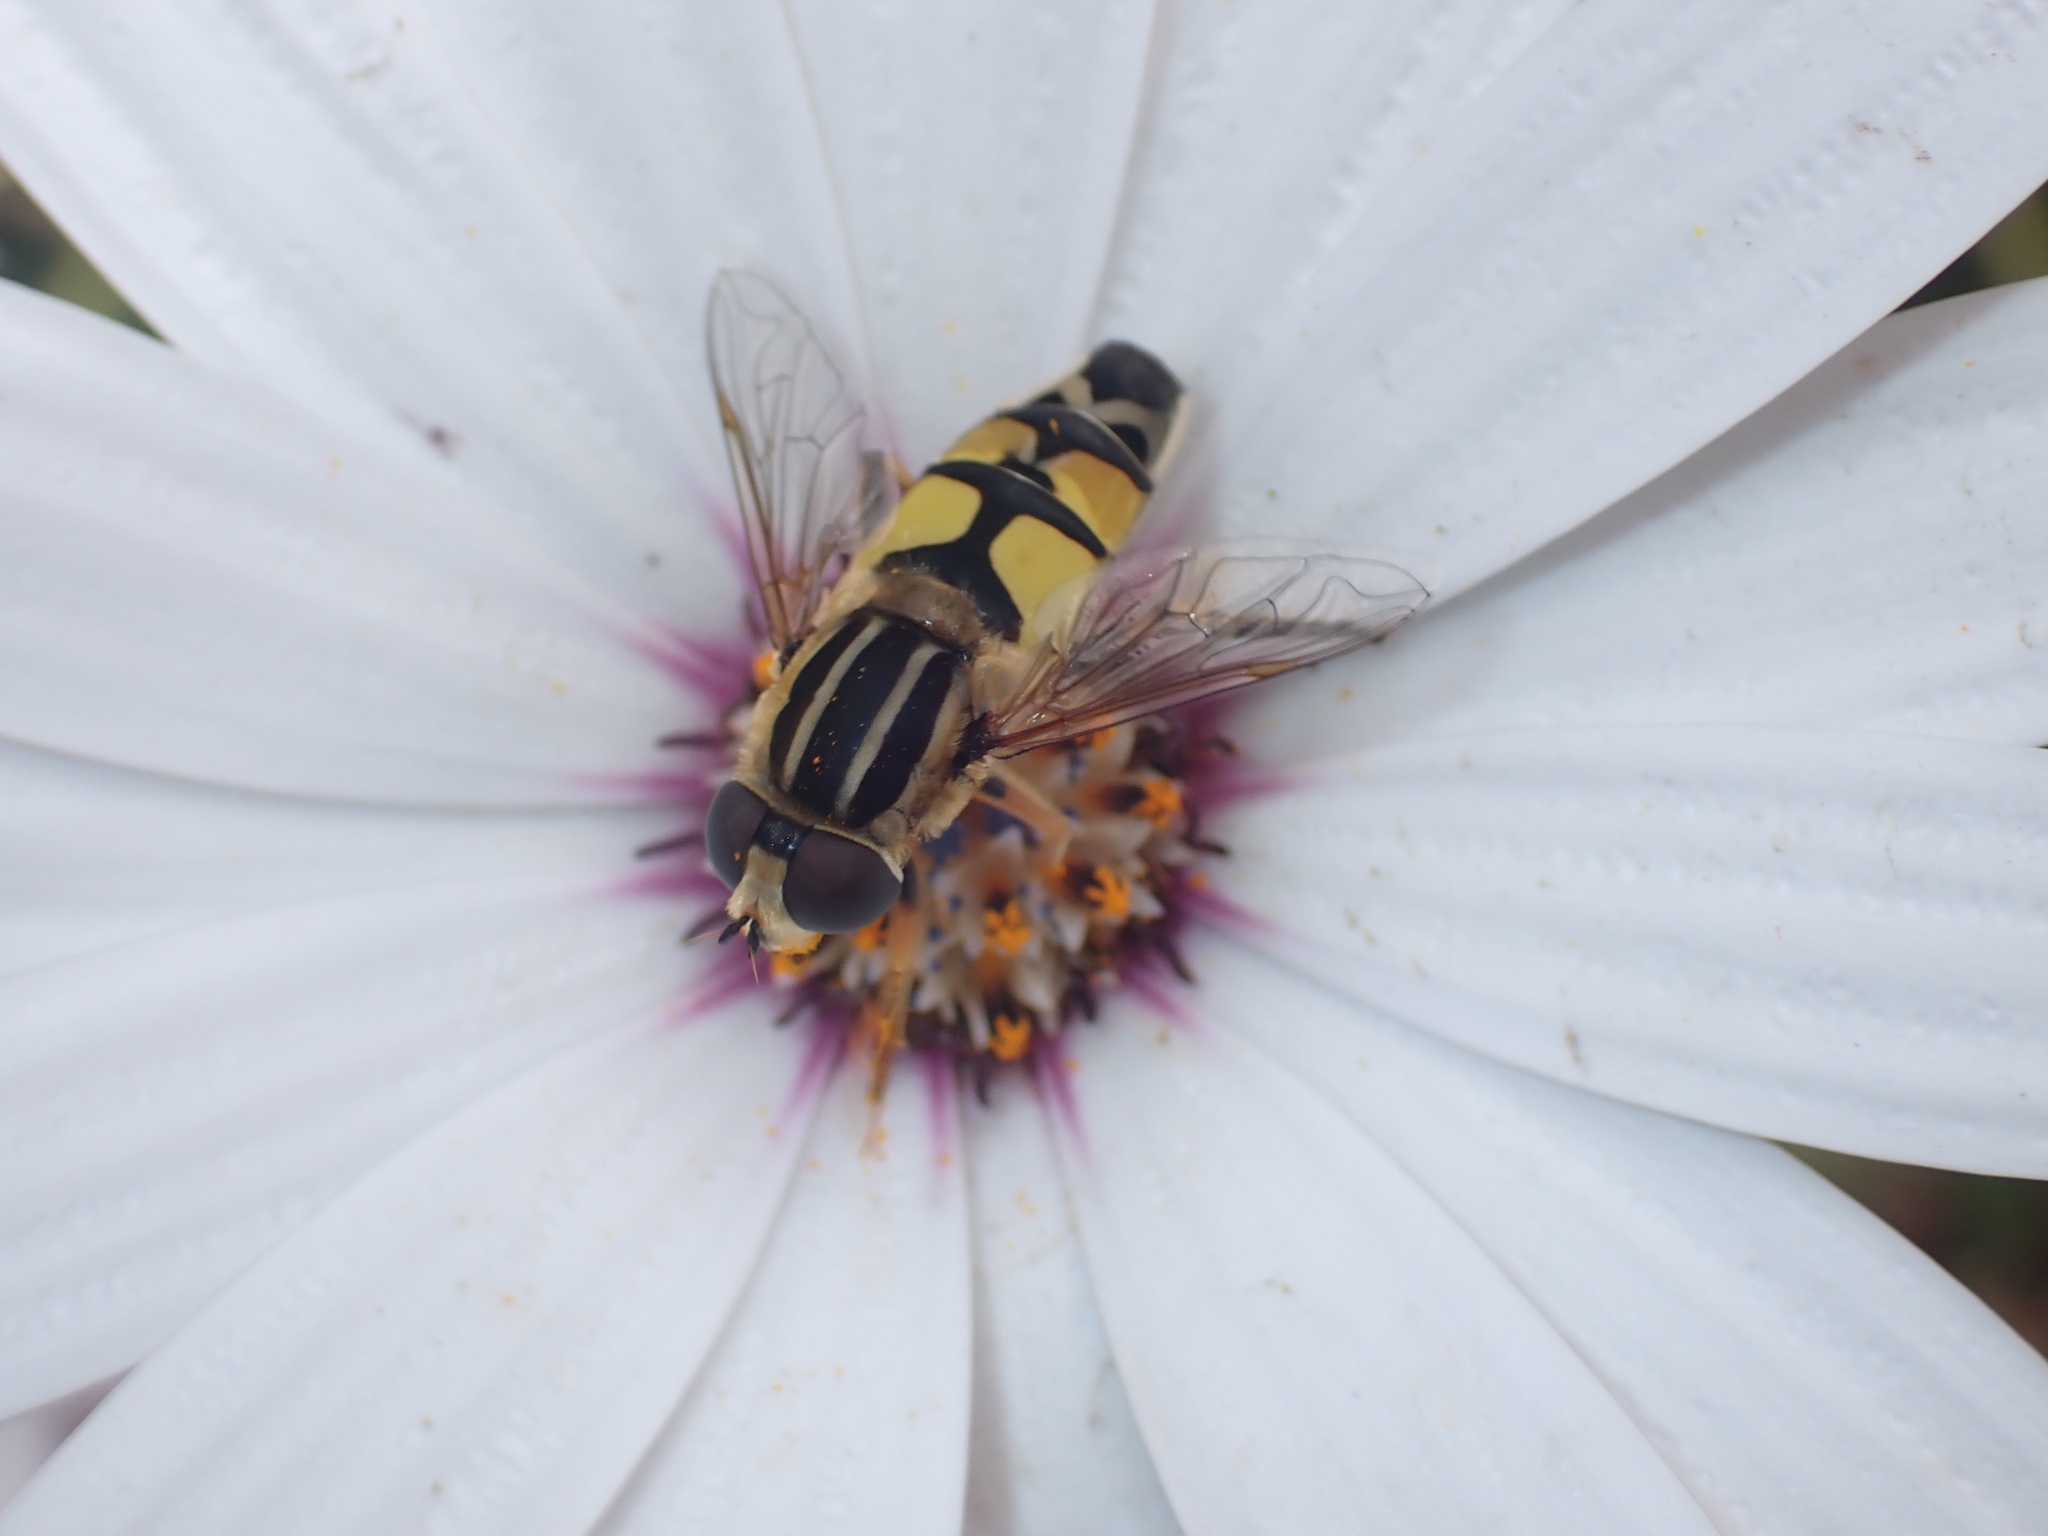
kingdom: Animalia
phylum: Arthropoda
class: Insecta
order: Diptera
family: Syrphidae
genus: Helophilus
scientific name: Helophilus trivittatus
